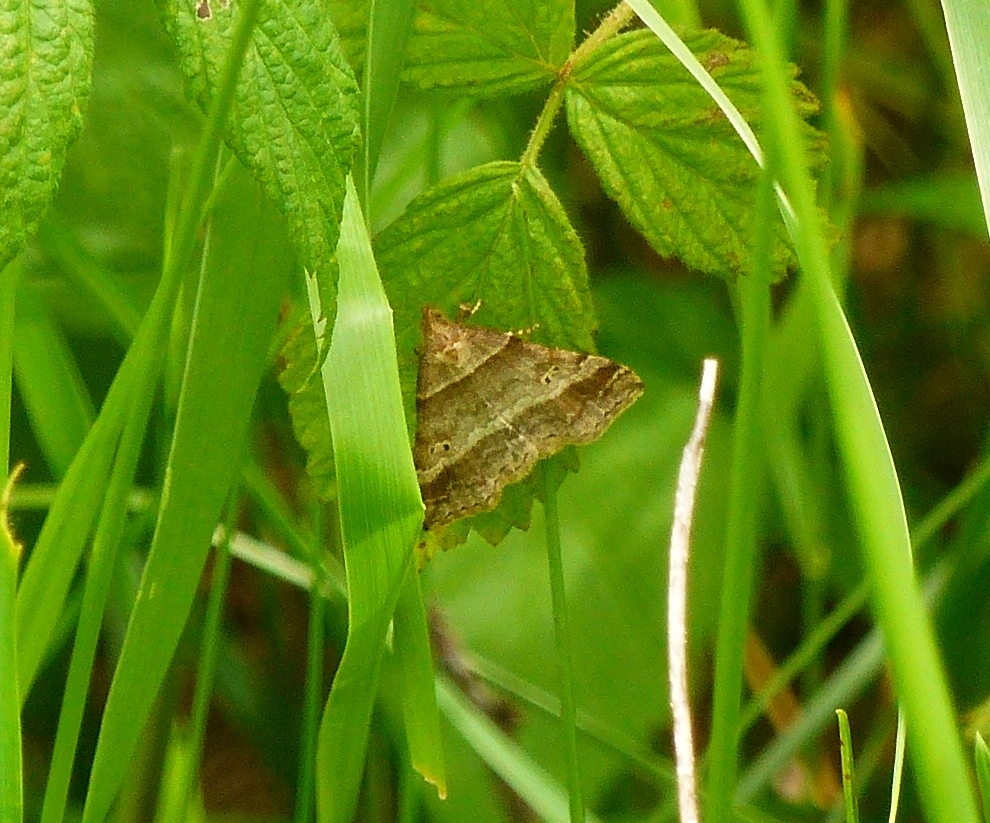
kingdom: Animalia
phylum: Arthropoda
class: Insecta
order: Lepidoptera
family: Erebidae
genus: Phaeolita
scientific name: Phaeolita pyramusalis
